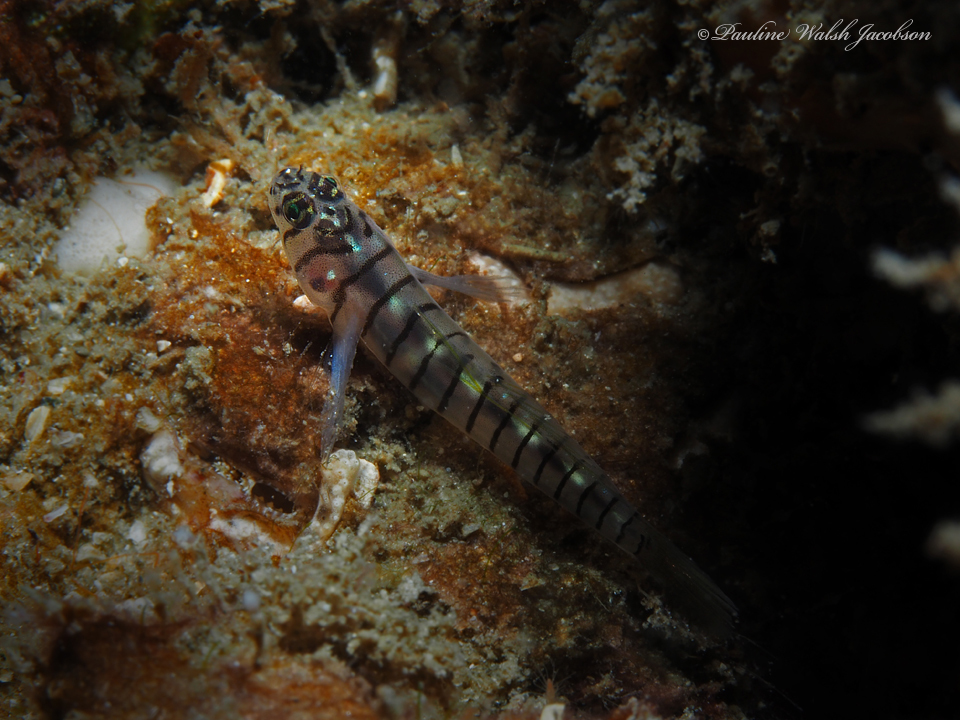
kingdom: Animalia
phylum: Chordata
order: Perciformes
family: Gobiidae
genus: Tigrigobius
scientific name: Tigrigobius macrodon
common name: Tiger goby
